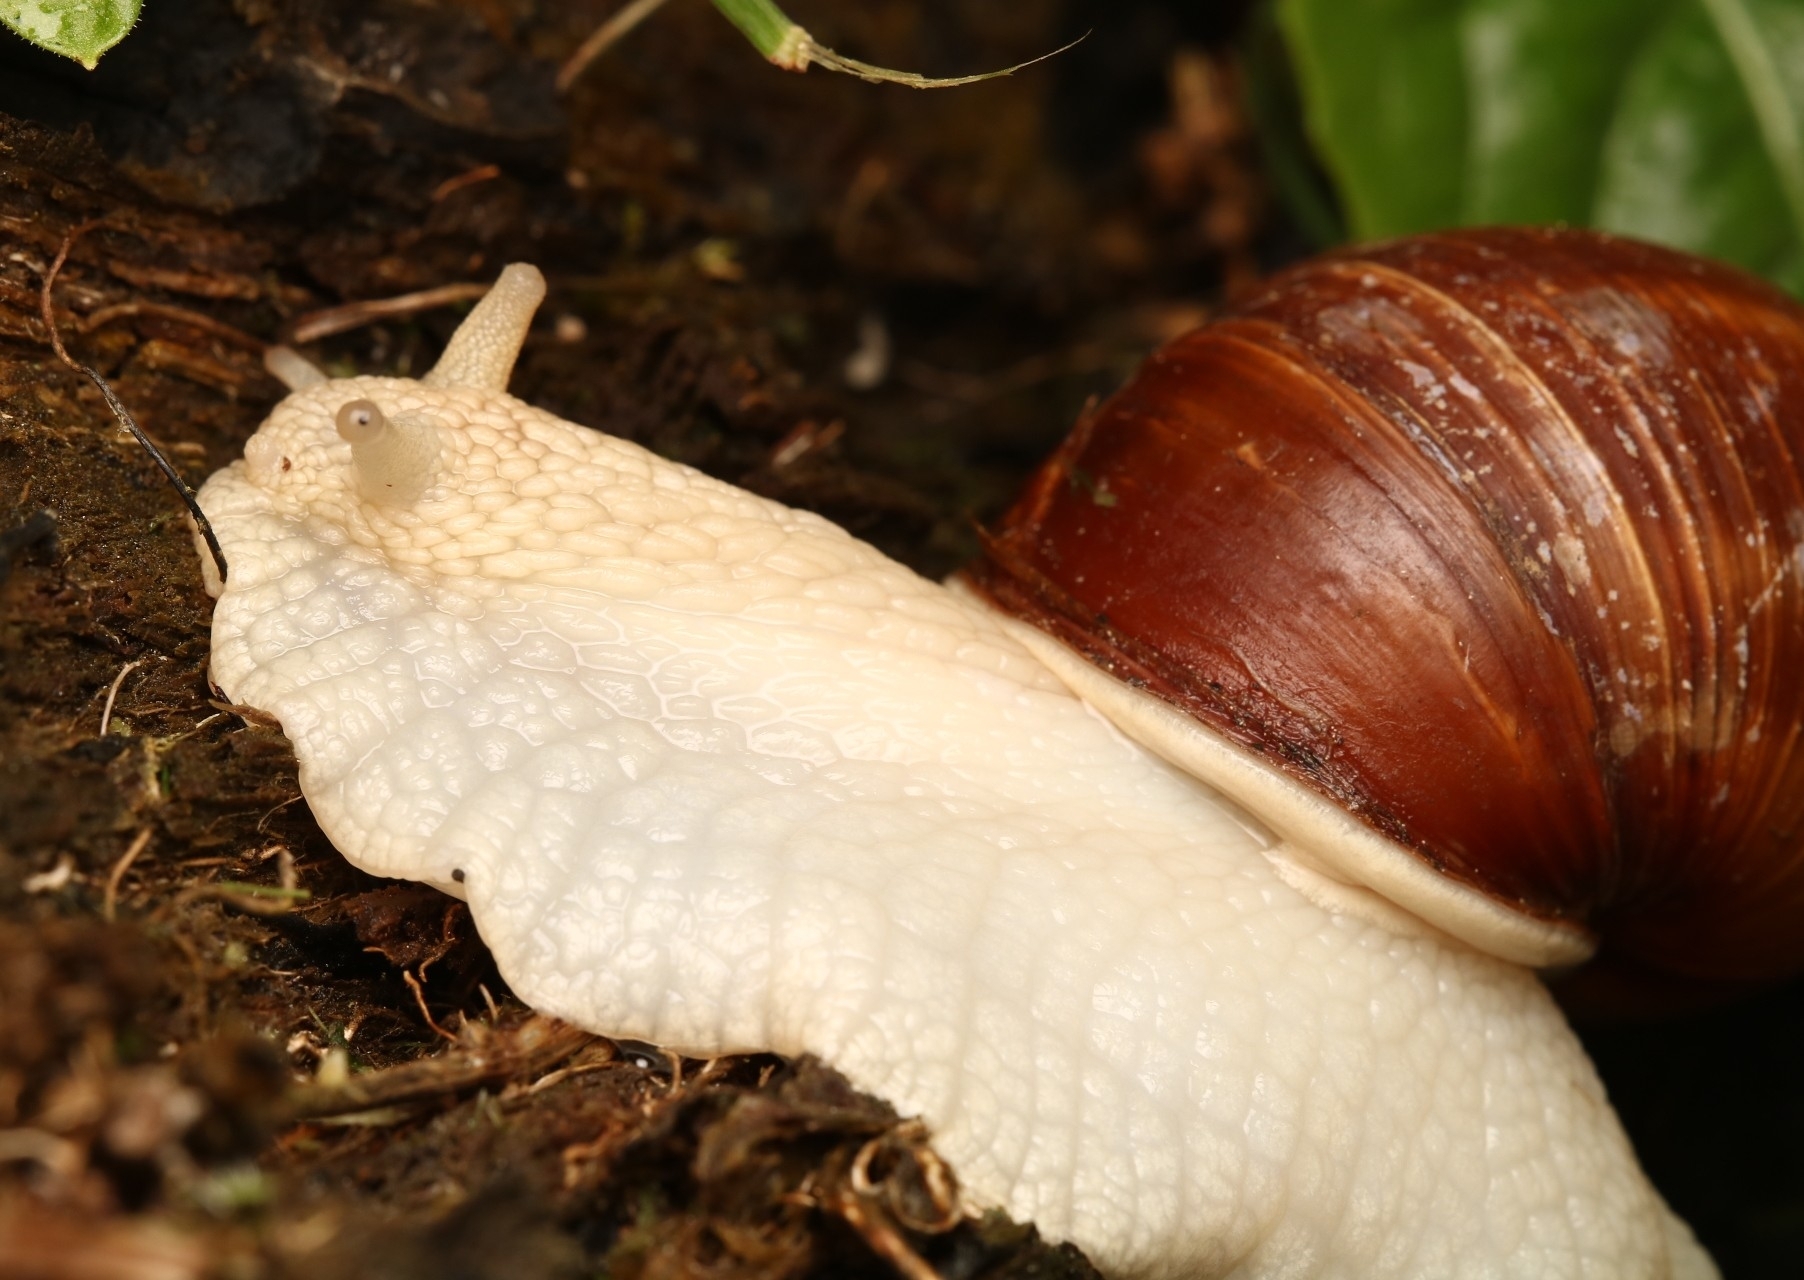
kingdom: Animalia
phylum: Mollusca
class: Gastropoda
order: Stylommatophora
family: Helicidae
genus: Helix
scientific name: Helix pomatia
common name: Roman snail
